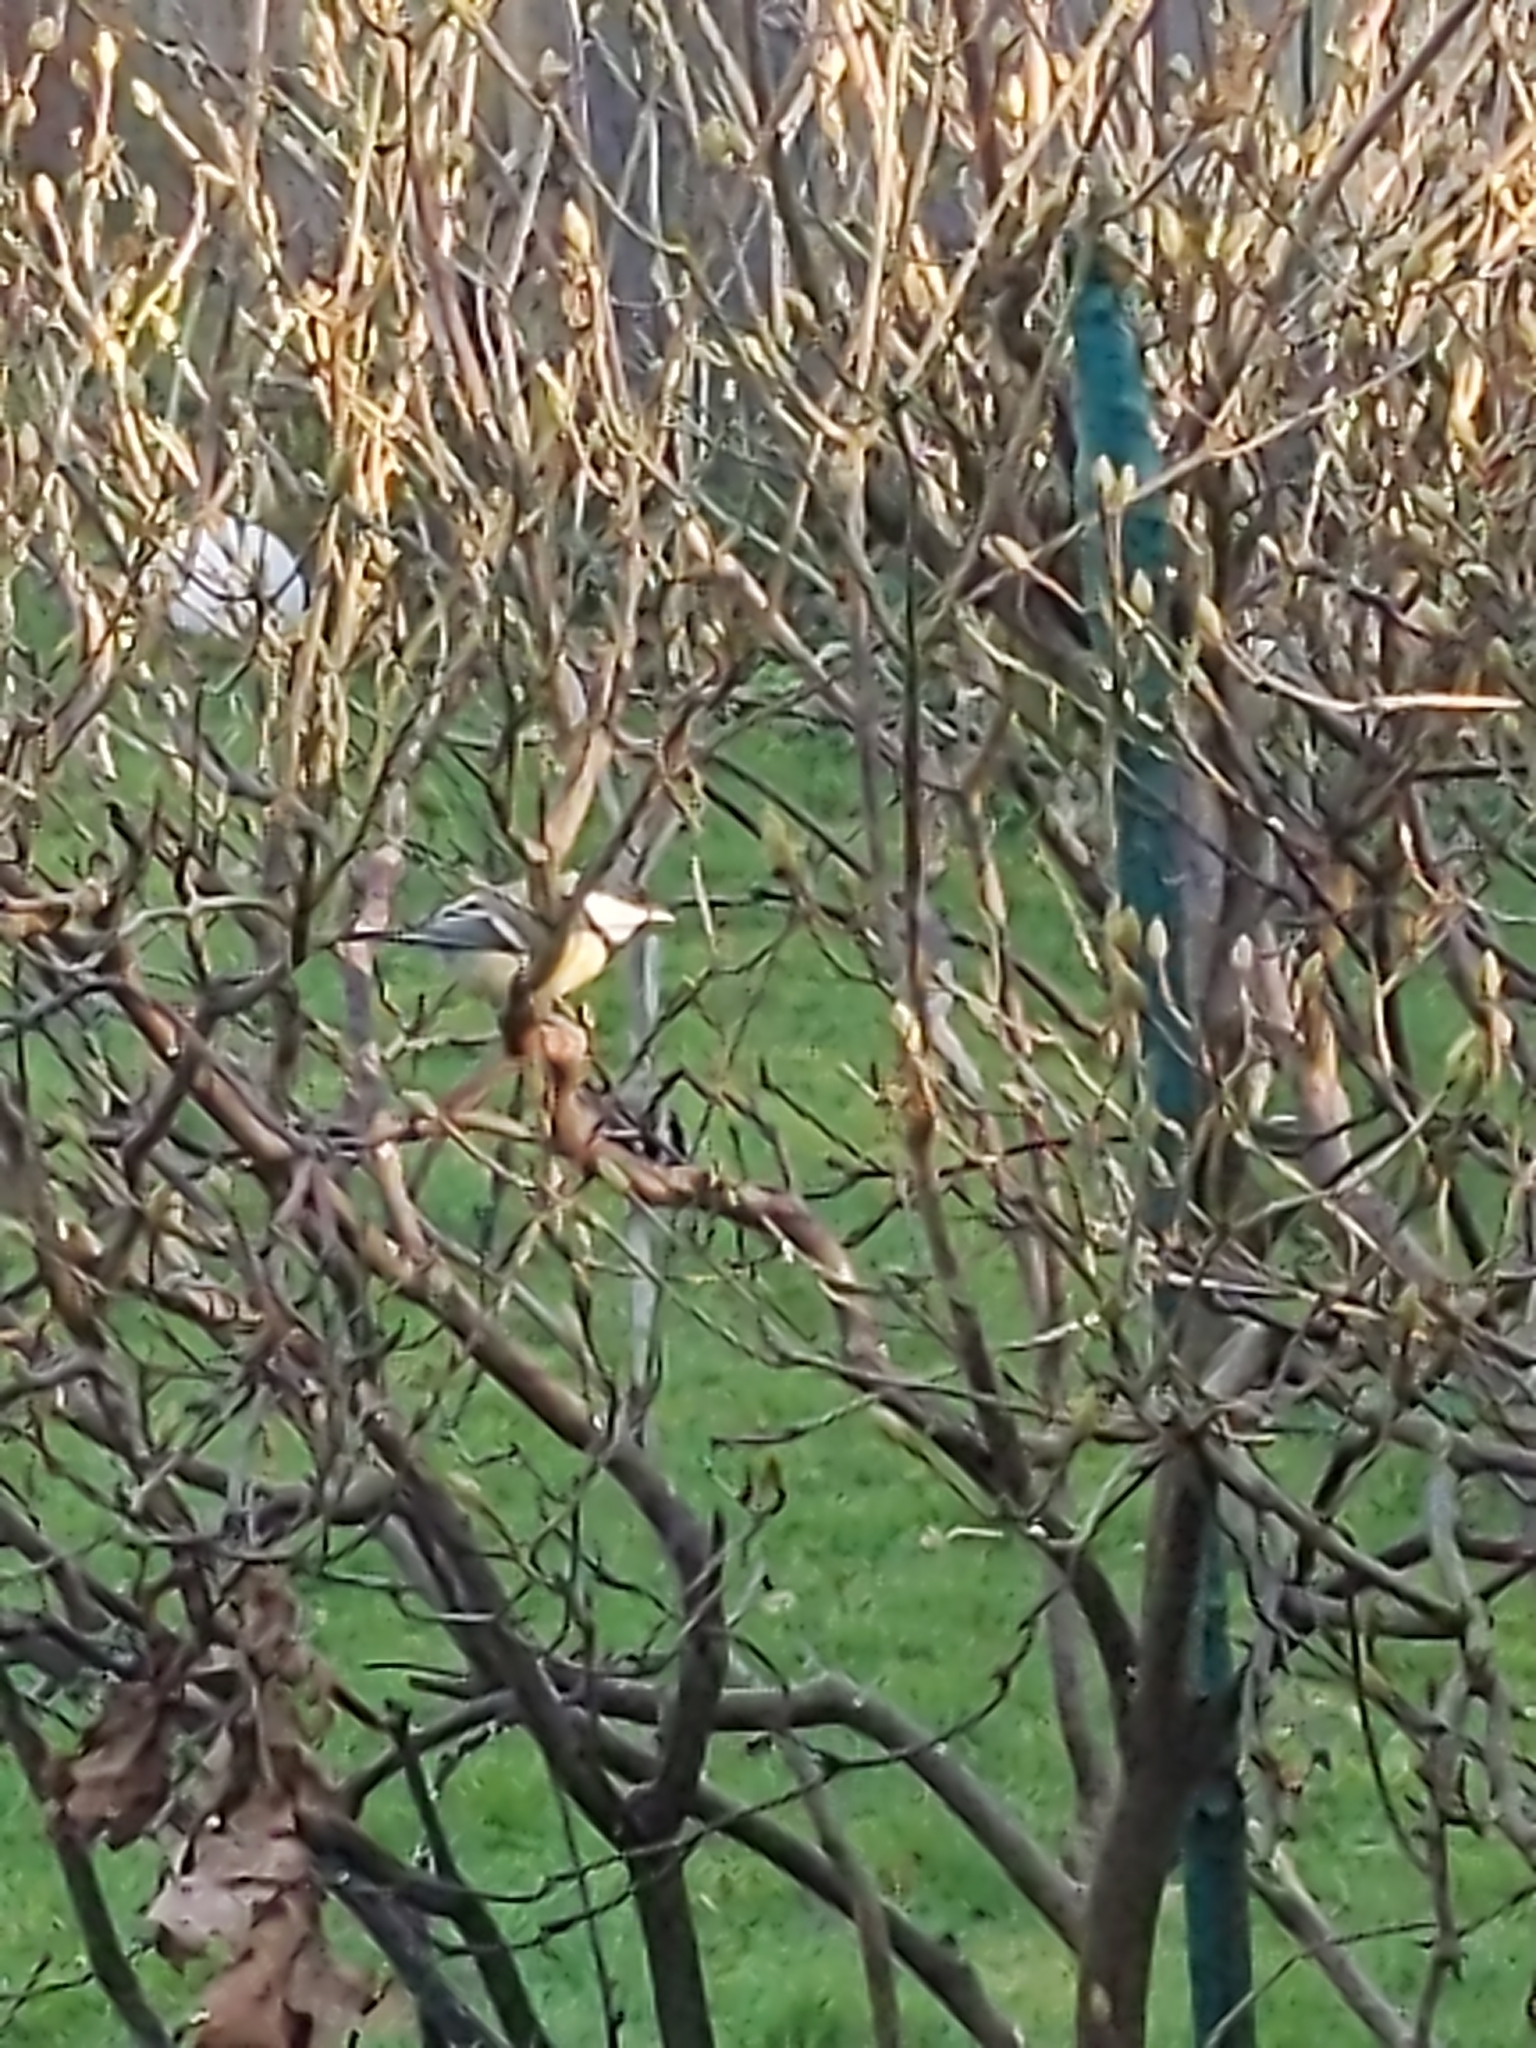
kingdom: Animalia
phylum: Chordata
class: Aves
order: Passeriformes
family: Paridae
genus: Parus
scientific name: Parus major
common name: Great tit
